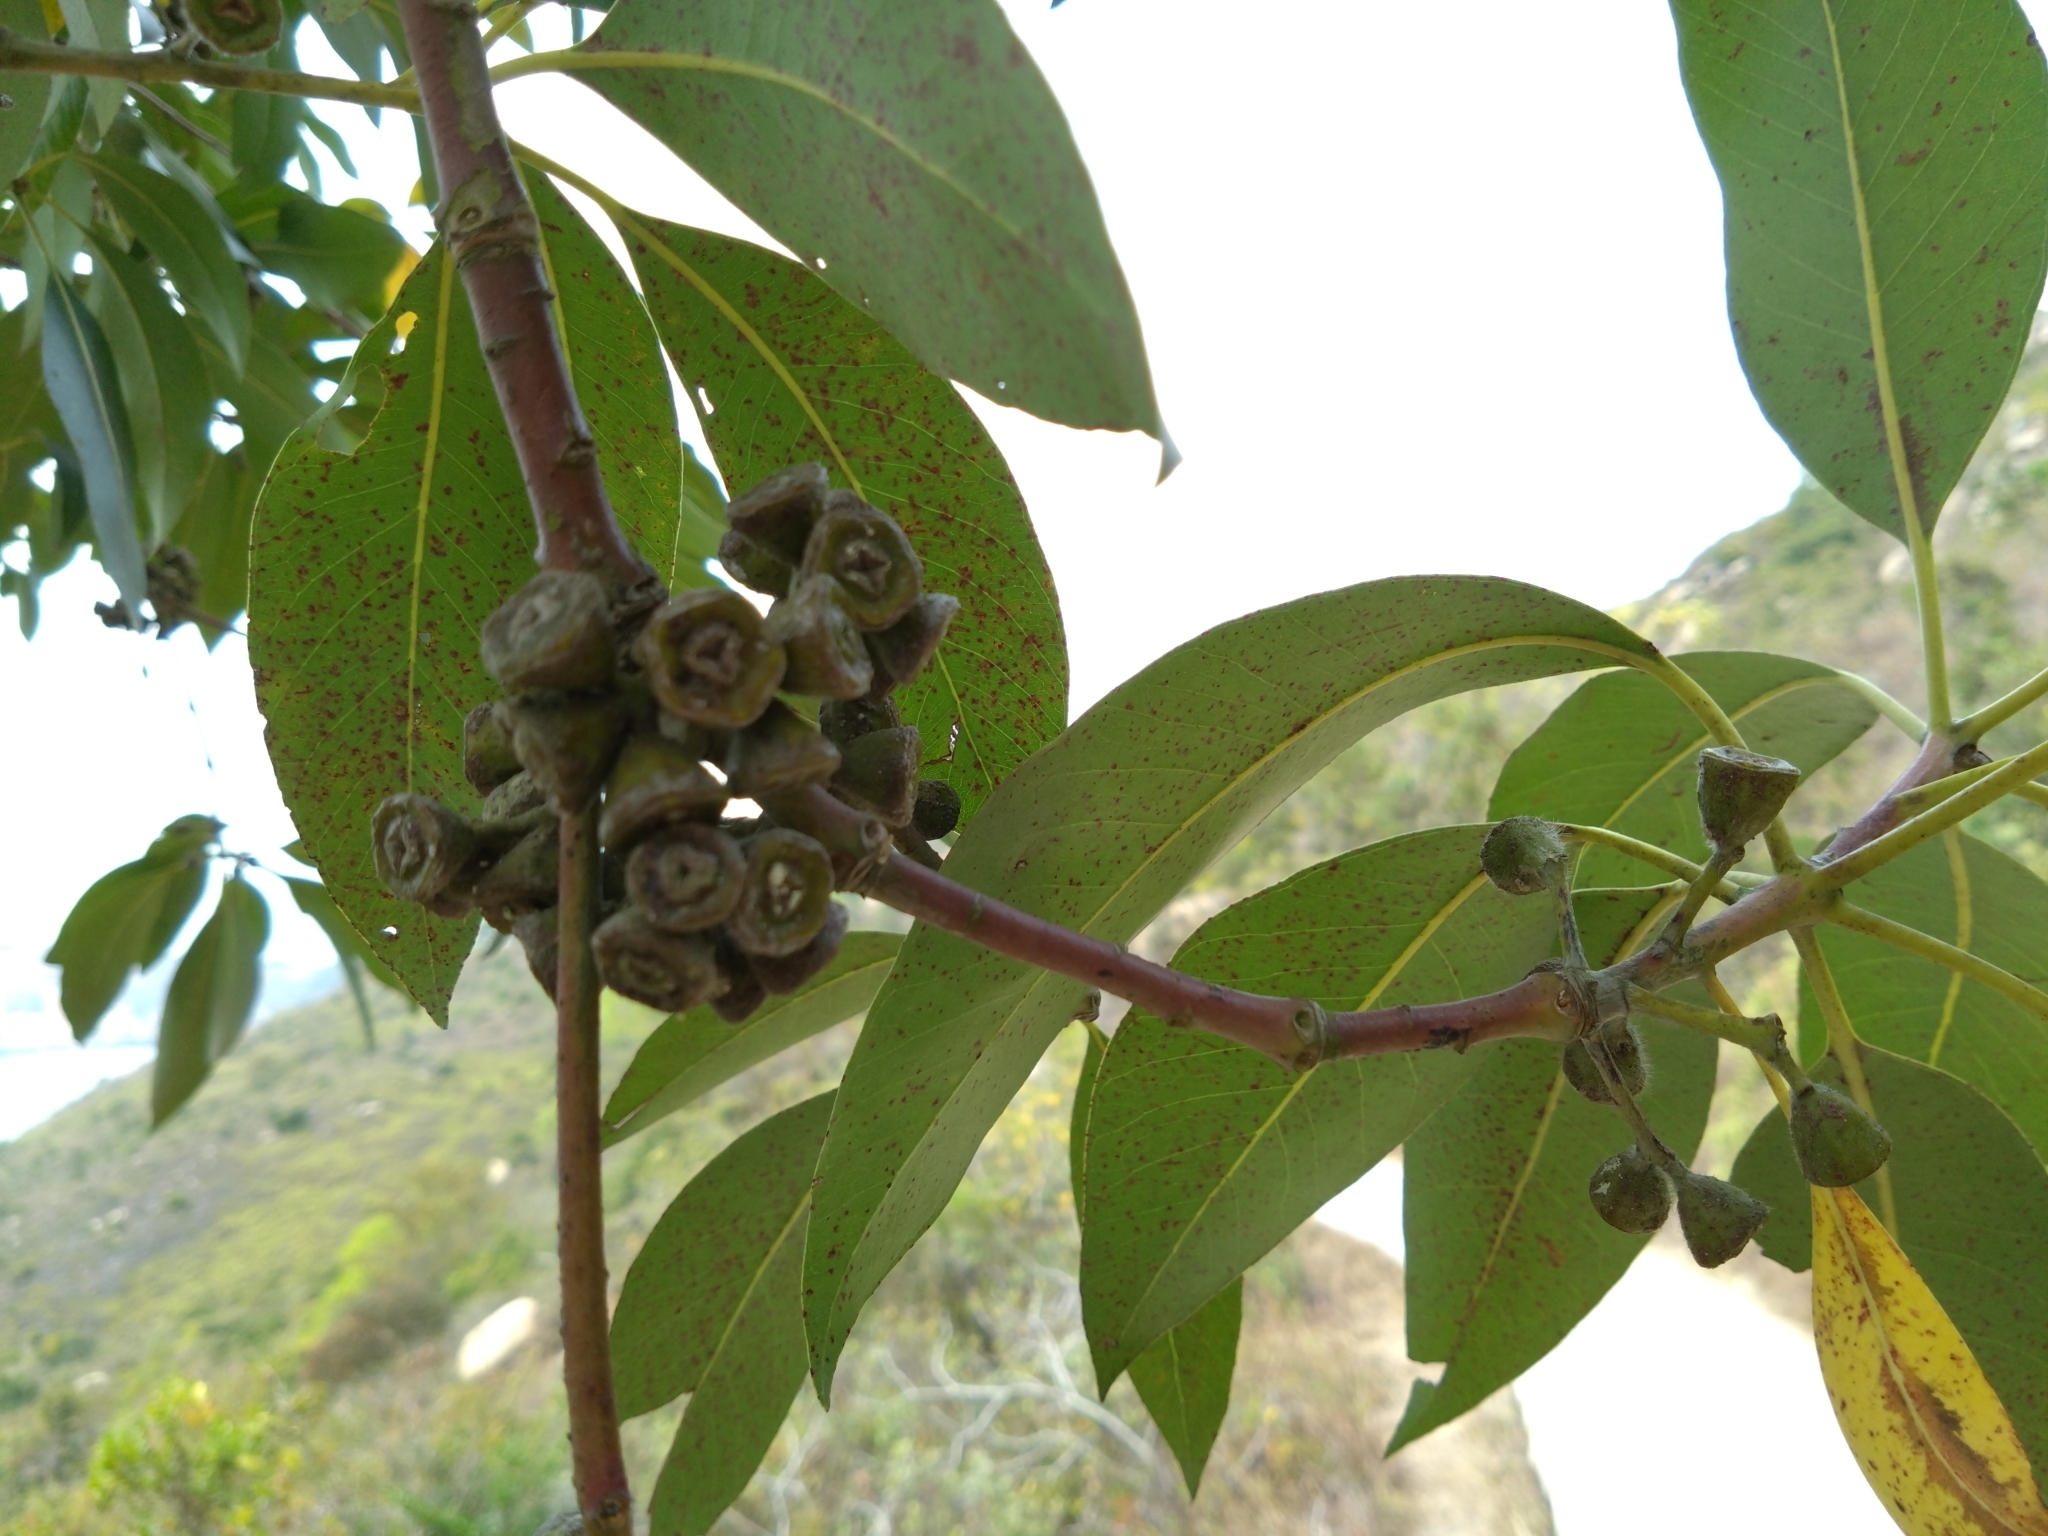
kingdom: Plantae
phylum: Tracheophyta
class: Magnoliopsida
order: Myrtales
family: Myrtaceae
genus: Lophostemon
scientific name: Lophostemon confertus
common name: Brisbane box
